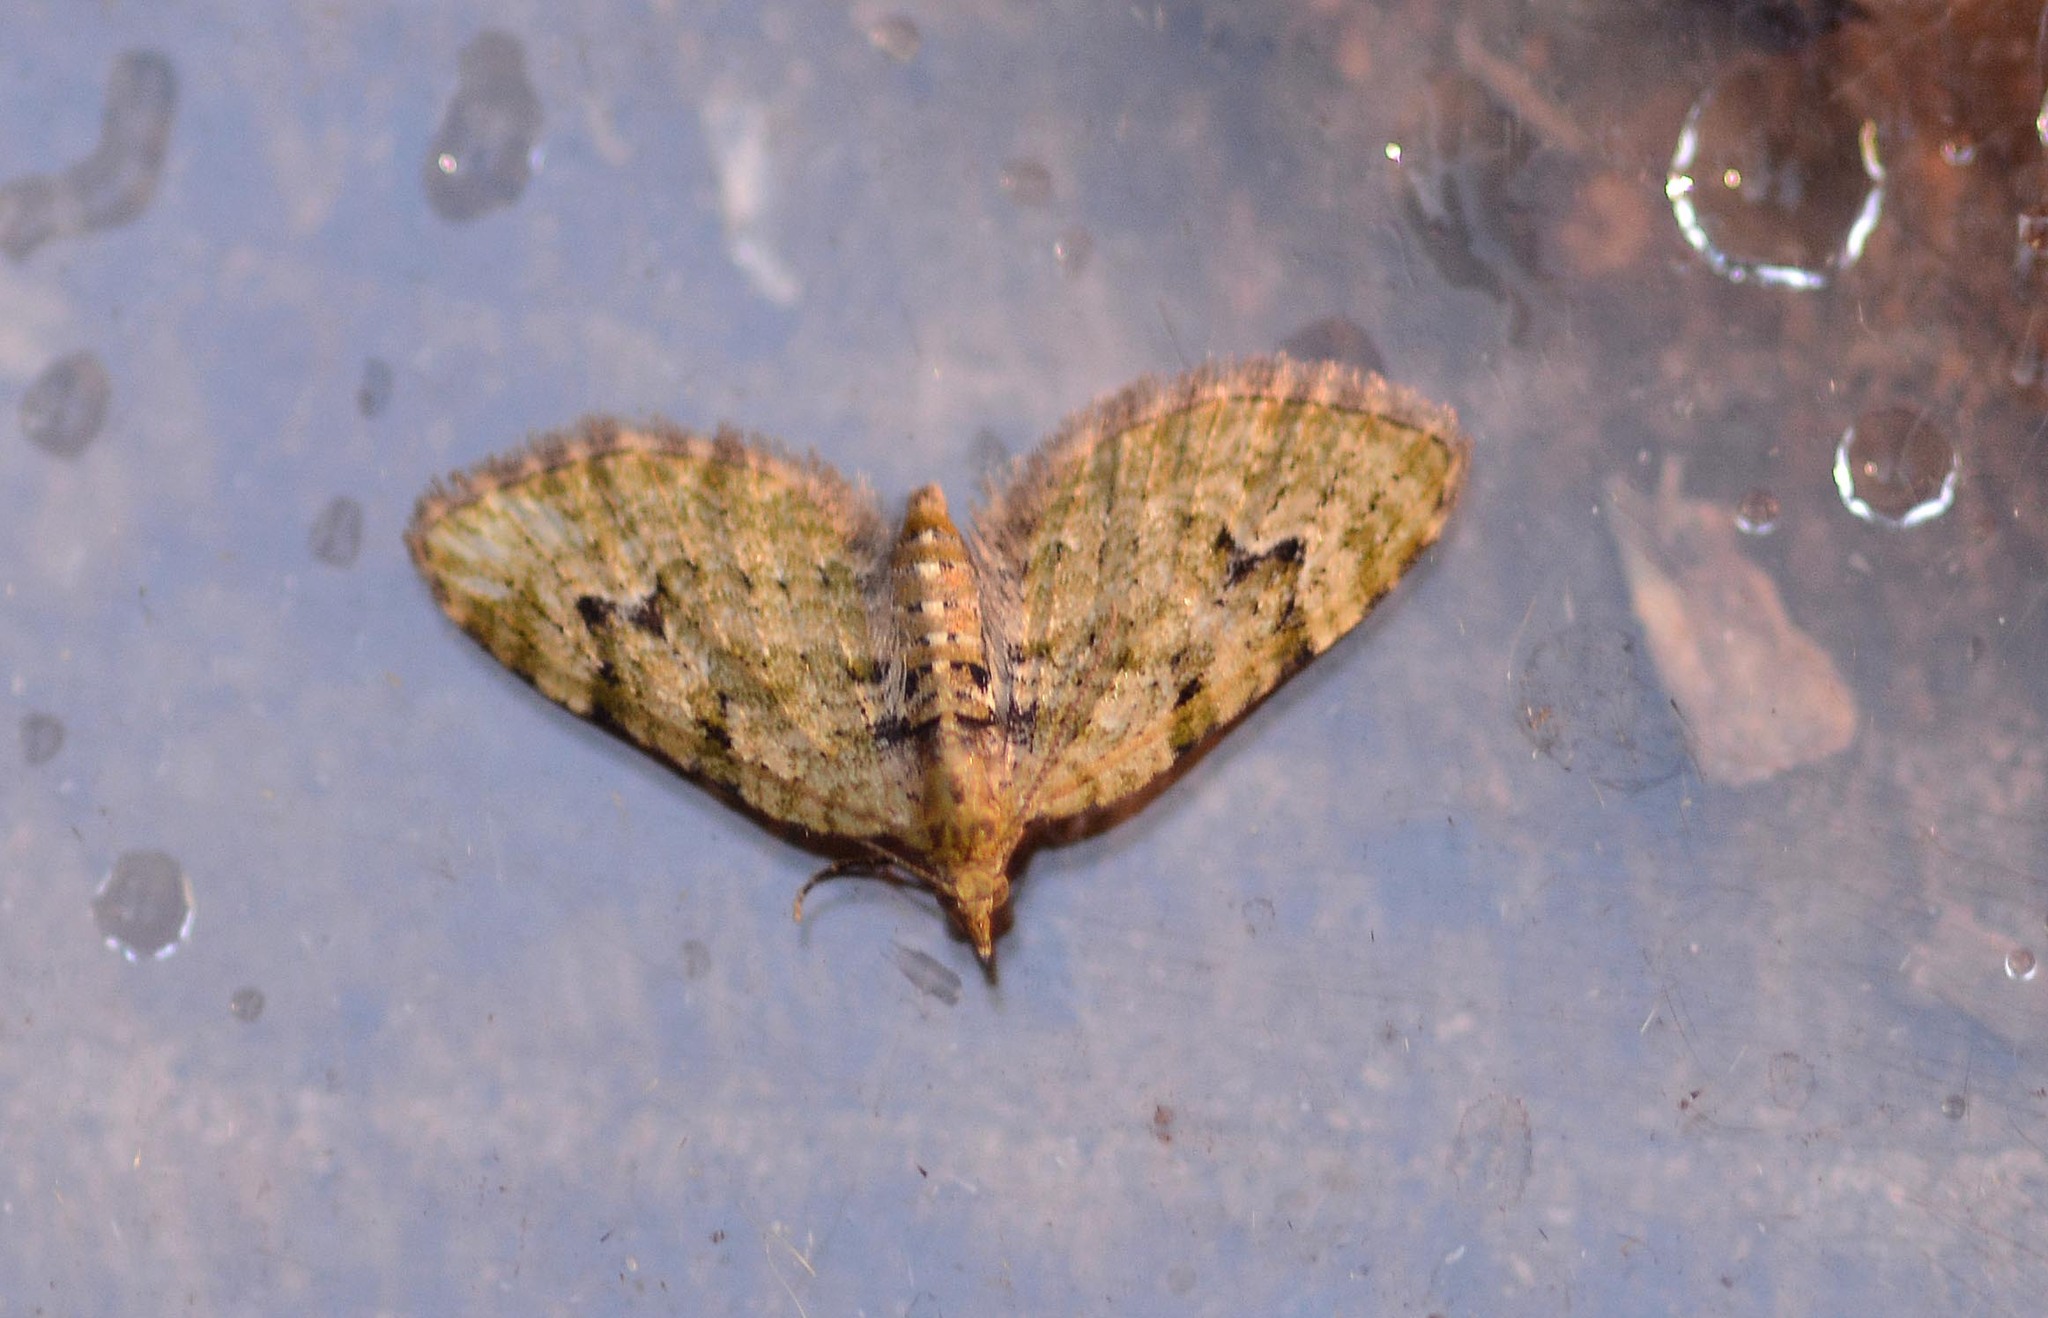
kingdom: Animalia
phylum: Arthropoda
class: Insecta
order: Lepidoptera
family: Geometridae
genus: Chloroclystis
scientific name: Chloroclystis v-ata
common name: V-pug
